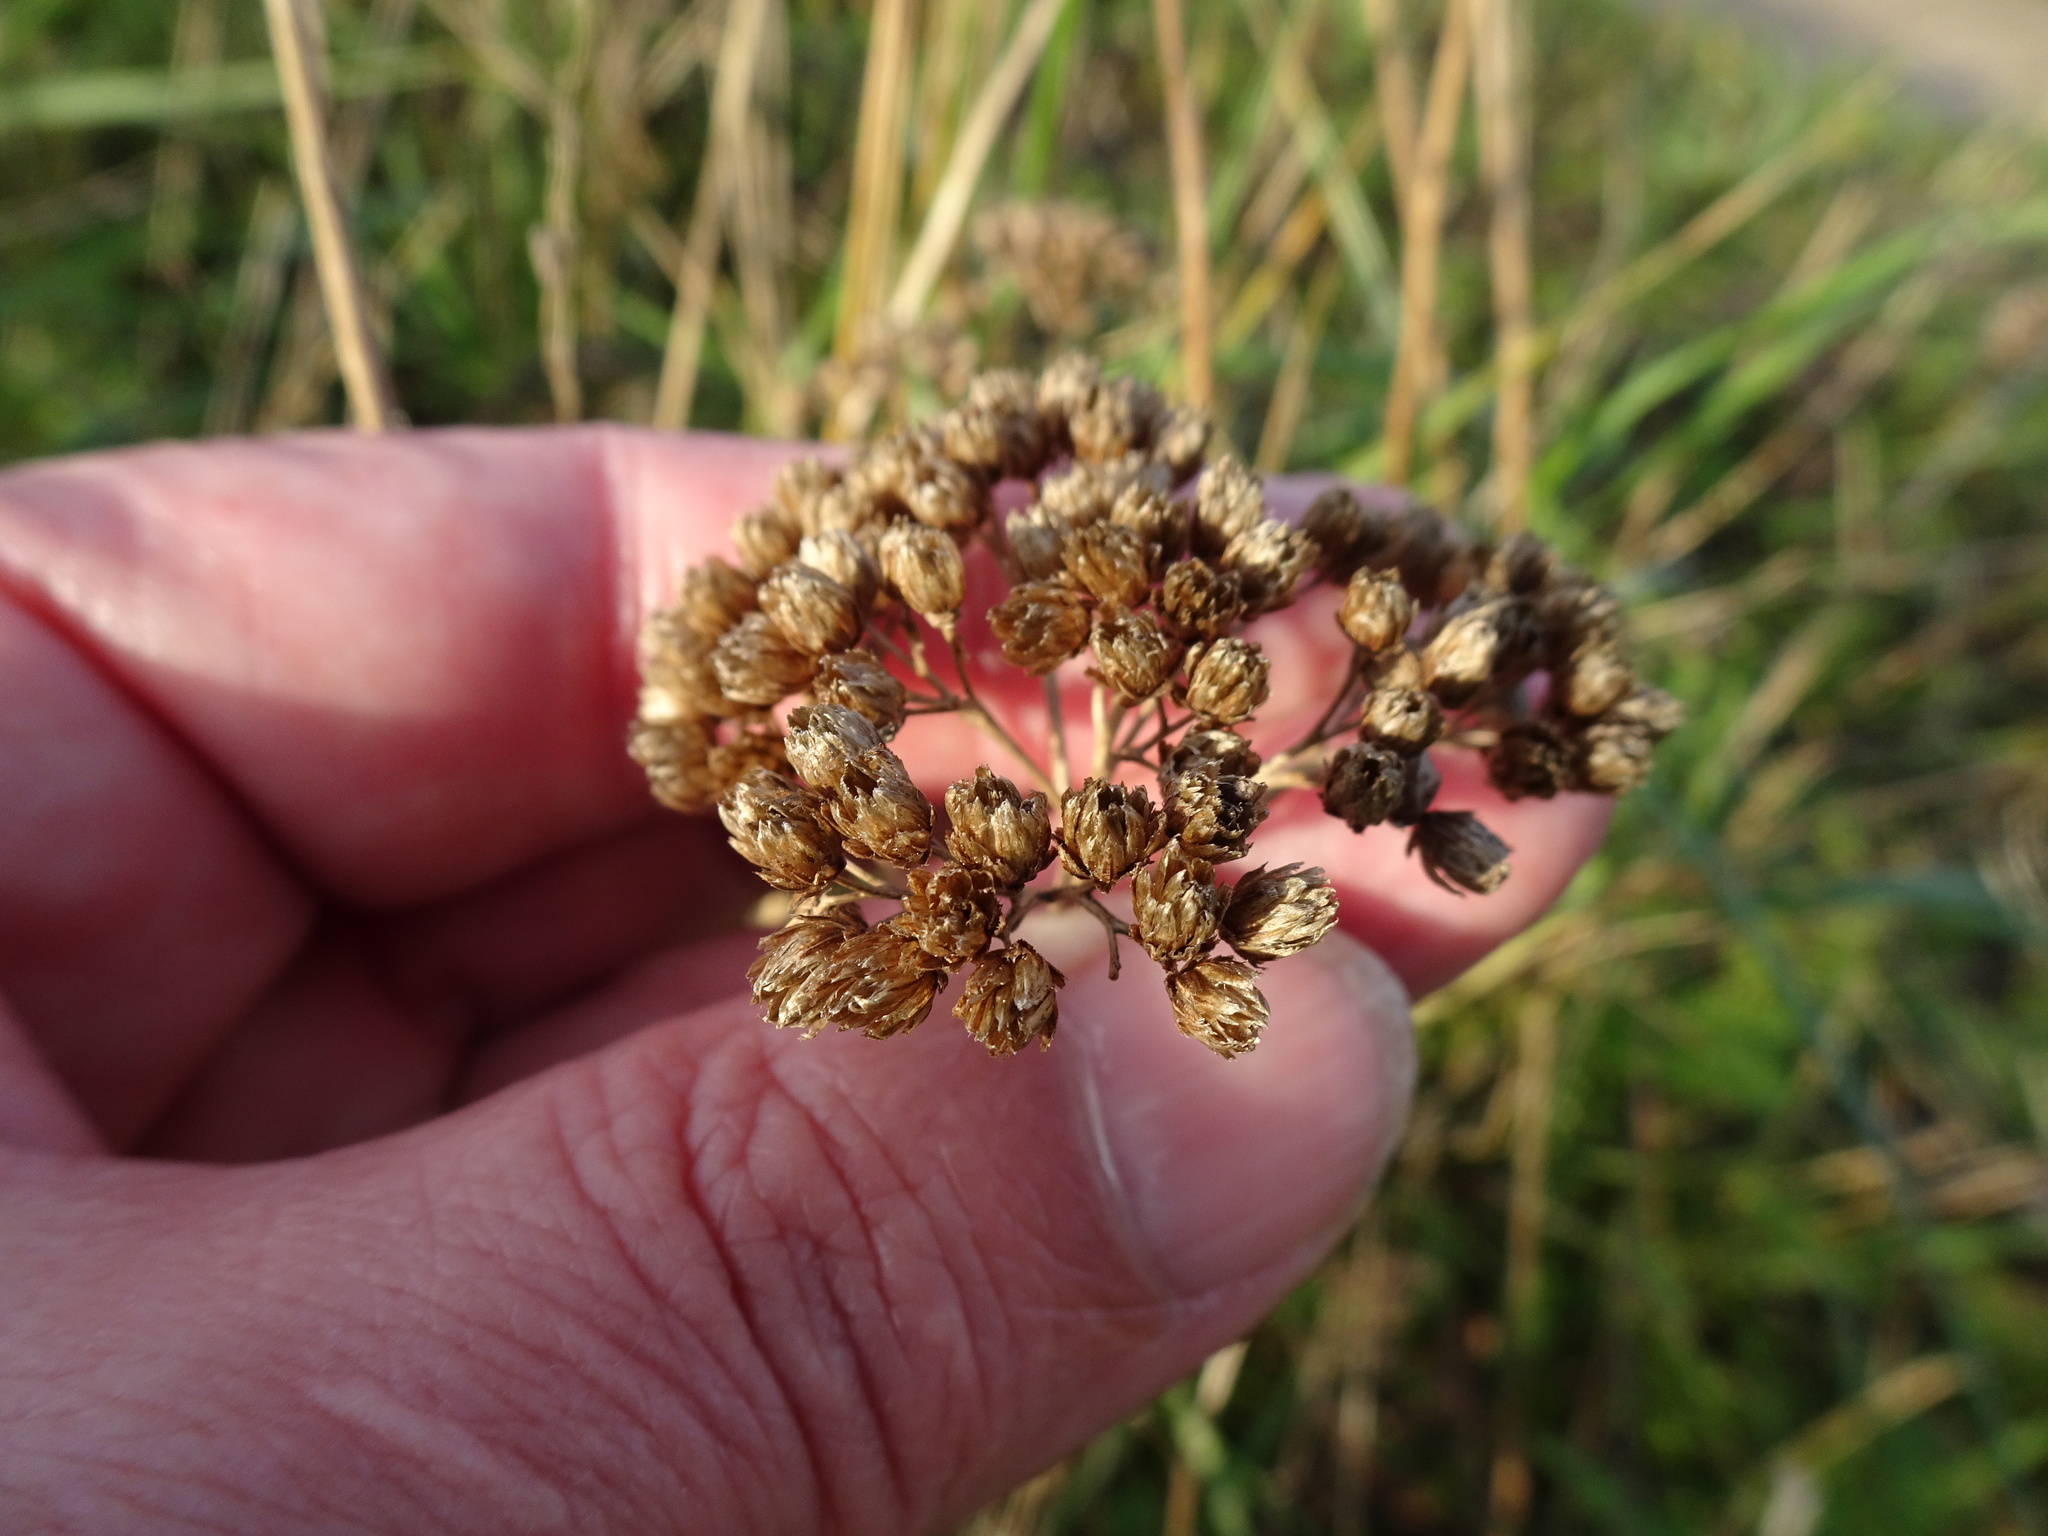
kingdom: Plantae
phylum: Tracheophyta
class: Magnoliopsida
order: Asterales
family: Asteraceae
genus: Achillea
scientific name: Achillea millefolium
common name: Yarrow
